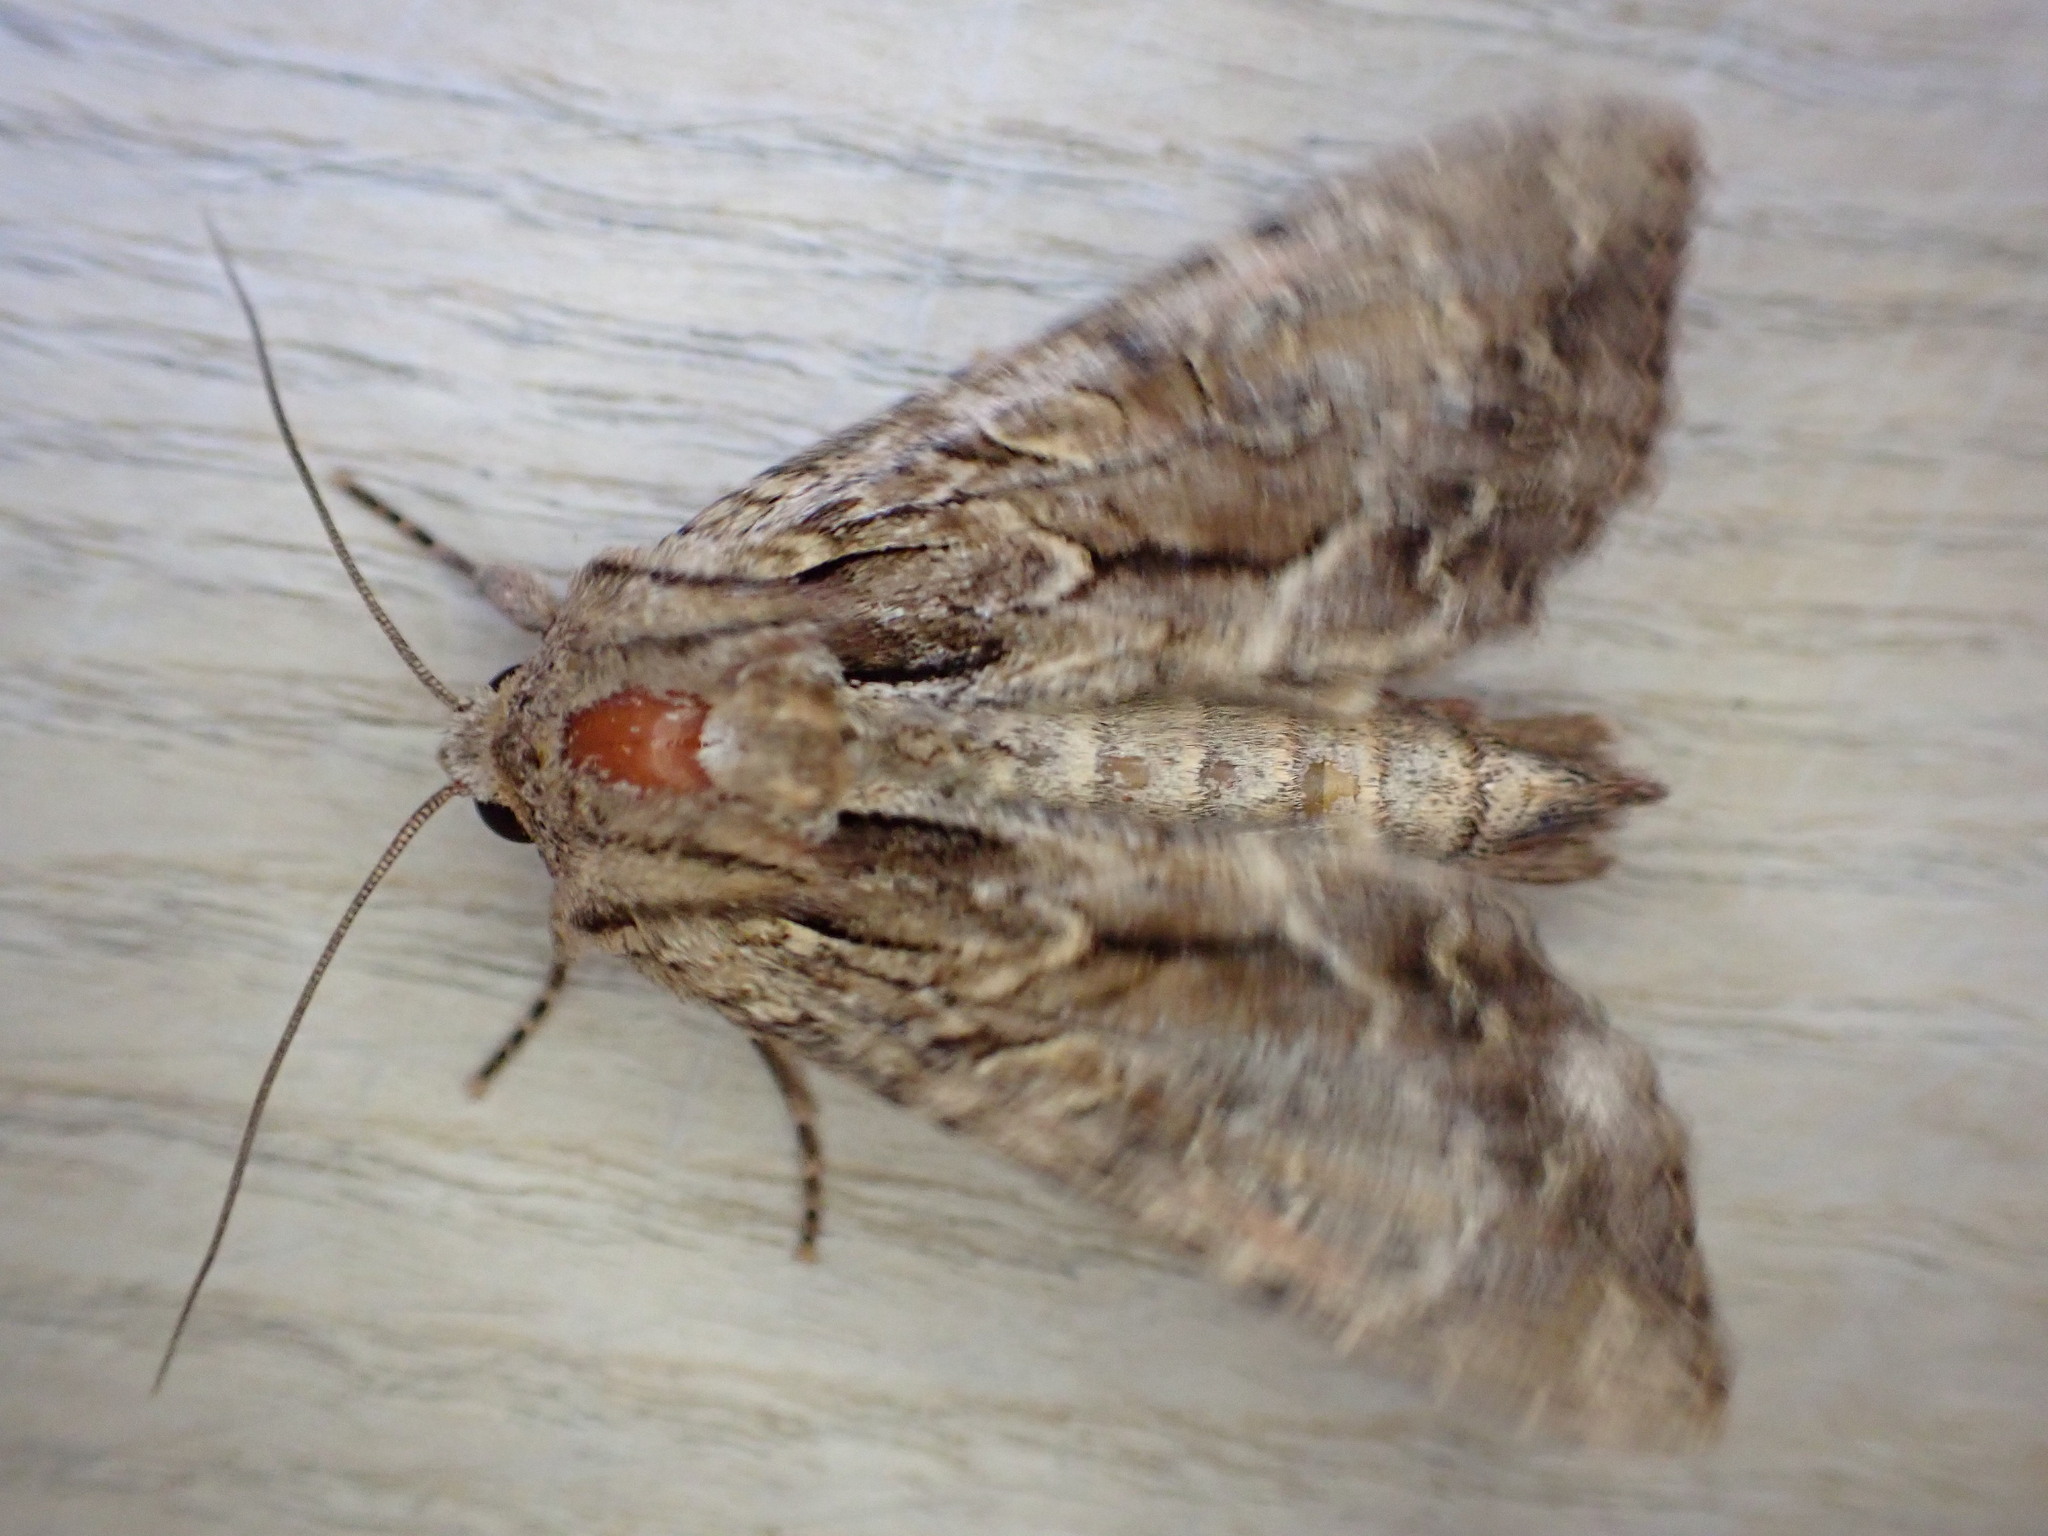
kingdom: Animalia
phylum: Arthropoda
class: Insecta
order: Lepidoptera
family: Noctuidae
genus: Apamea
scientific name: Apamea monoglypha
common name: Dark arches
